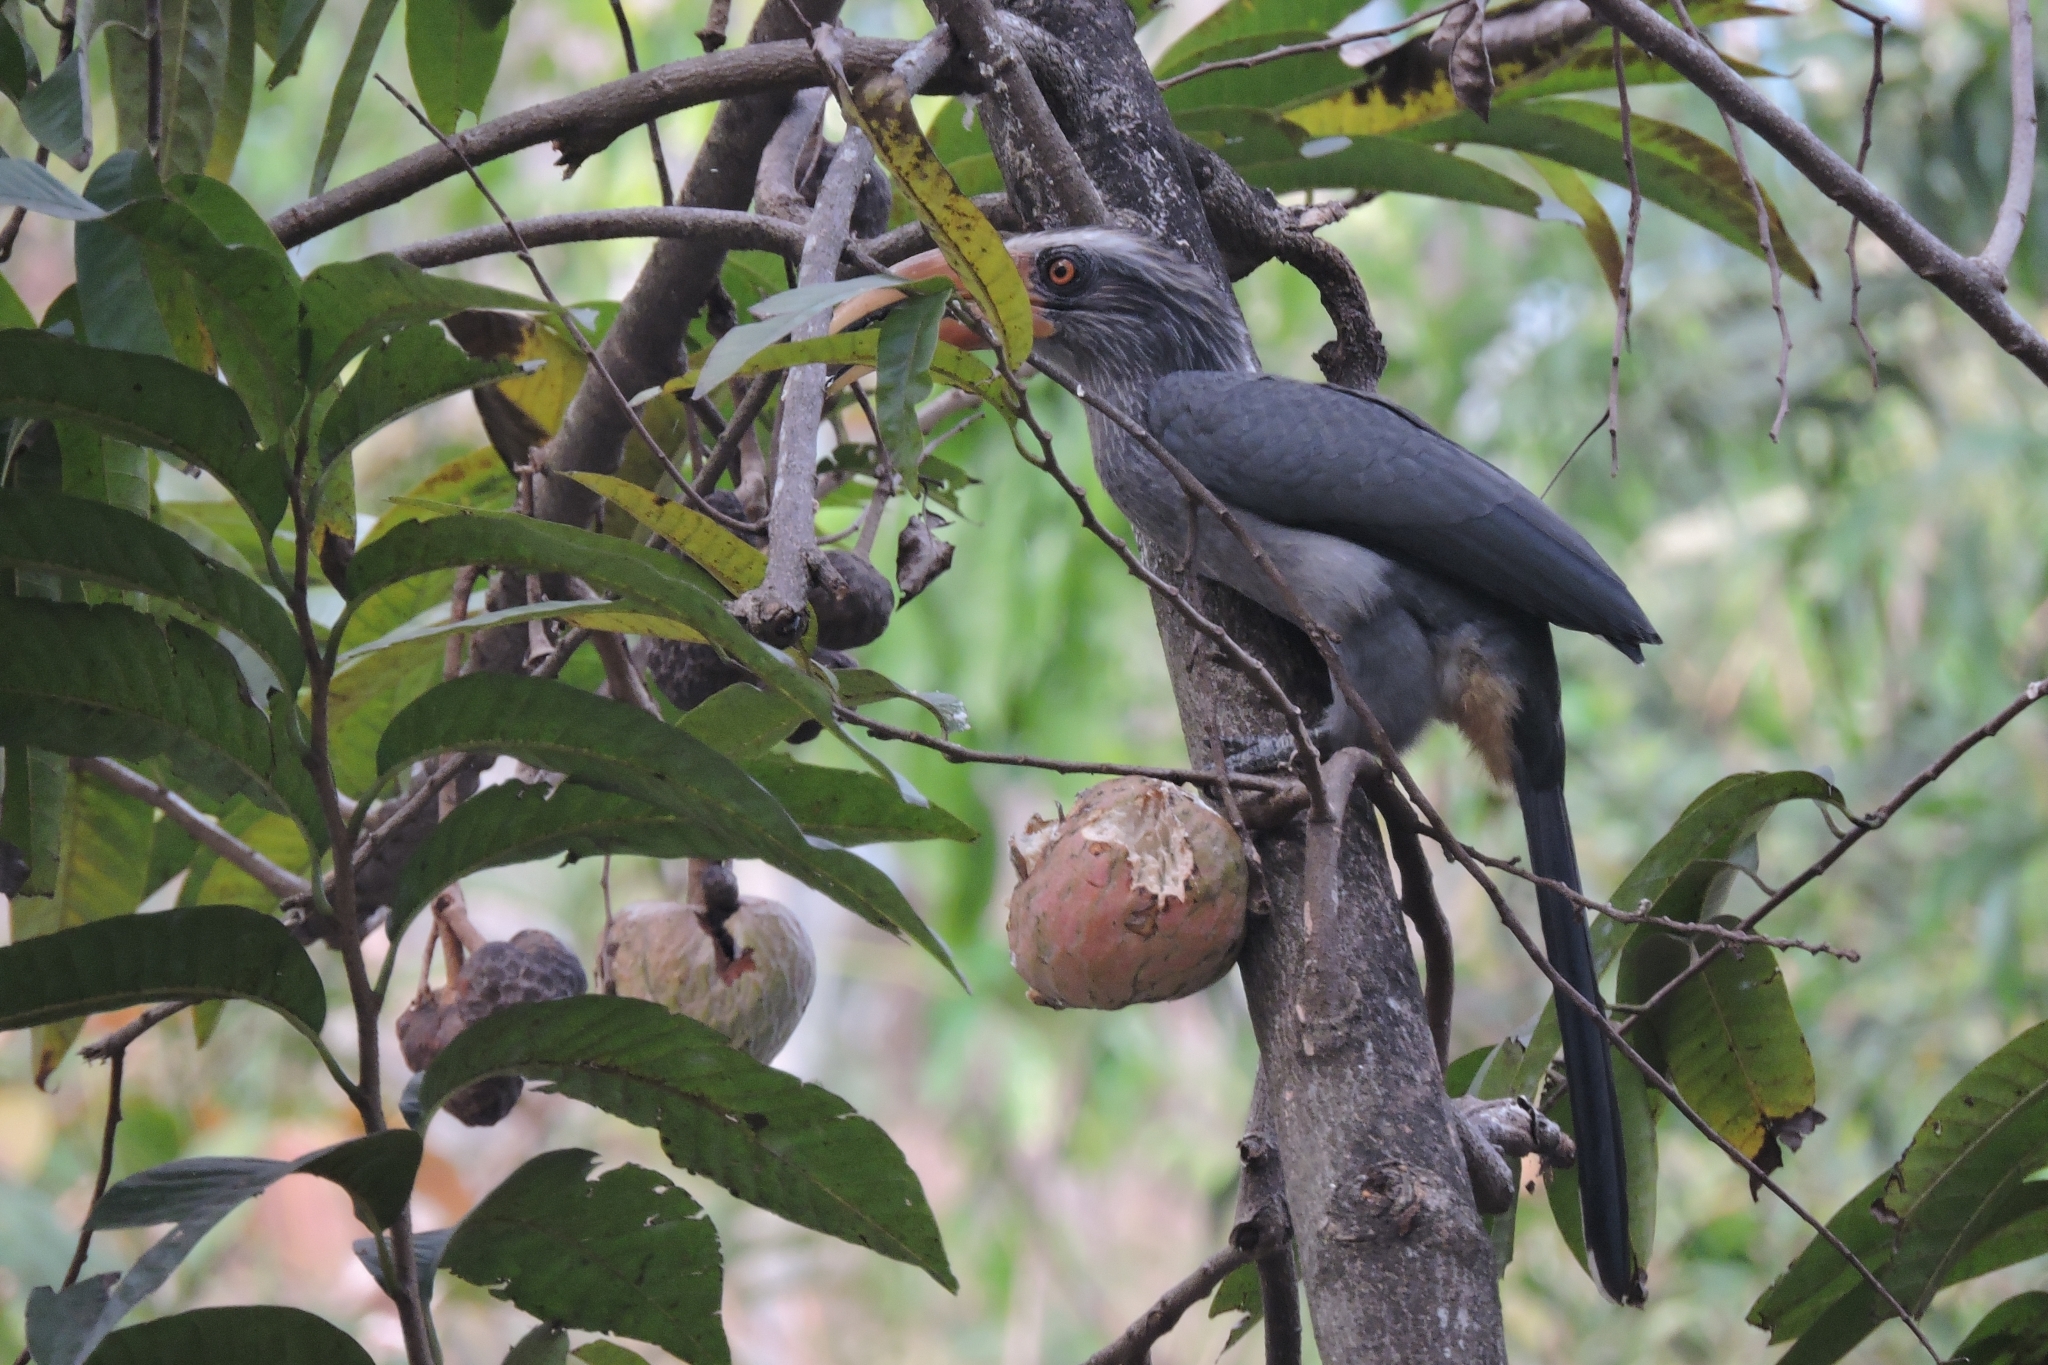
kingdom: Animalia
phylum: Chordata
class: Aves
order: Bucerotiformes
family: Bucerotidae
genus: Ocyceros
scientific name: Ocyceros griseus
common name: Malabar grey hornbill
